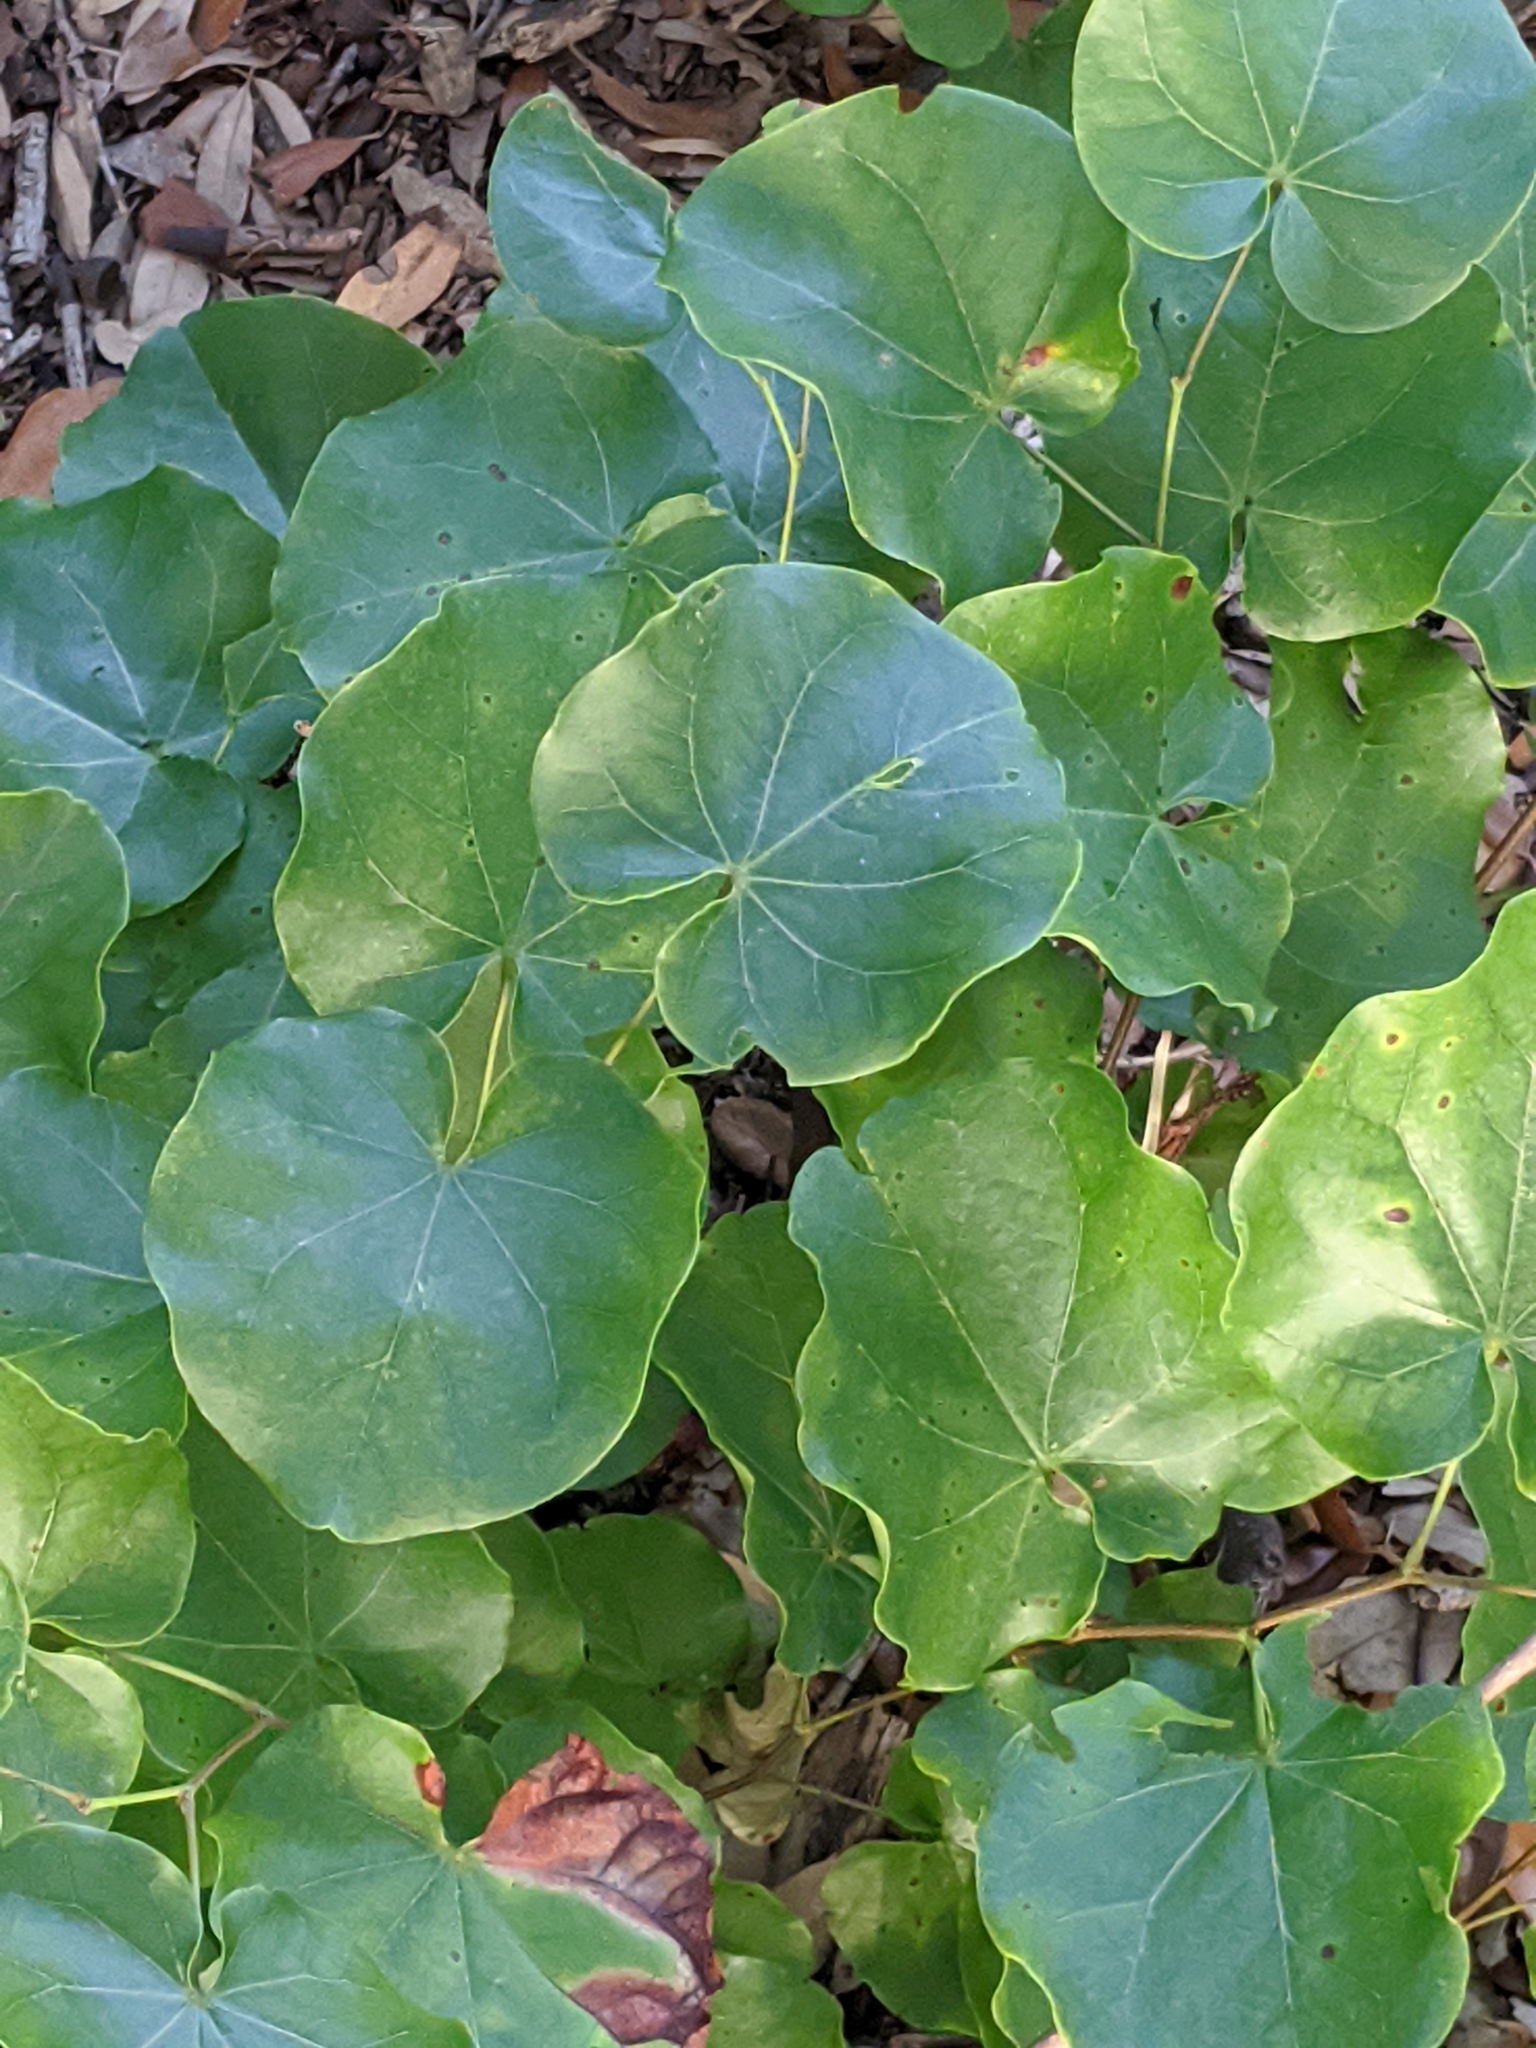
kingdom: Plantae
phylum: Tracheophyta
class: Magnoliopsida
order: Fabales
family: Fabaceae
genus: Cercis
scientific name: Cercis canadensis
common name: Eastern redbud
